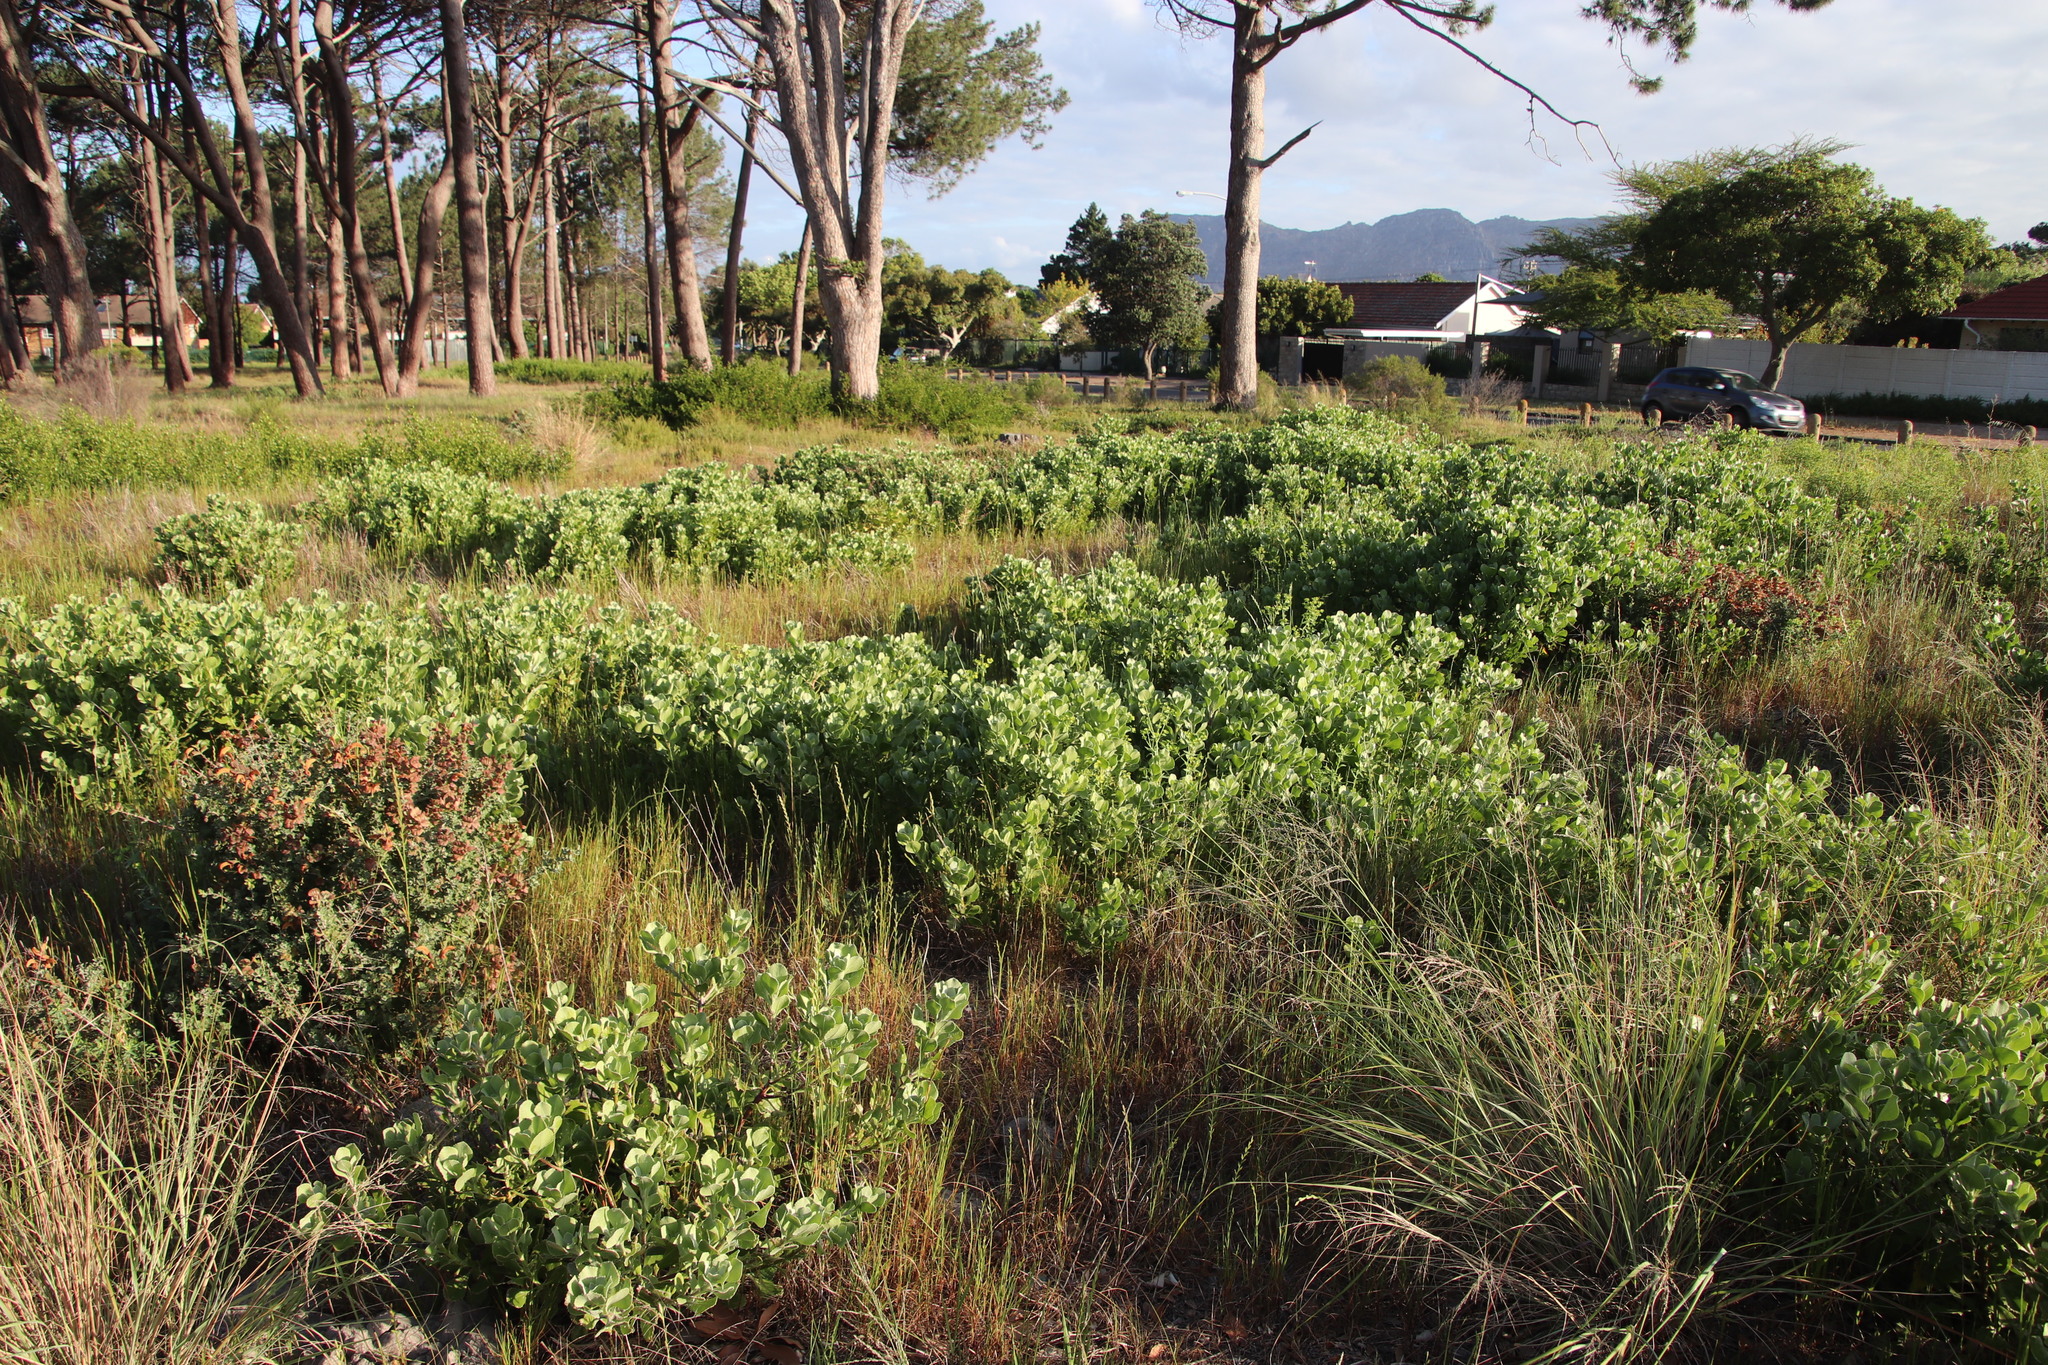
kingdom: Plantae
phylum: Tracheophyta
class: Magnoliopsida
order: Asterales
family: Asteraceae
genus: Osteospermum
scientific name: Osteospermum moniliferum
